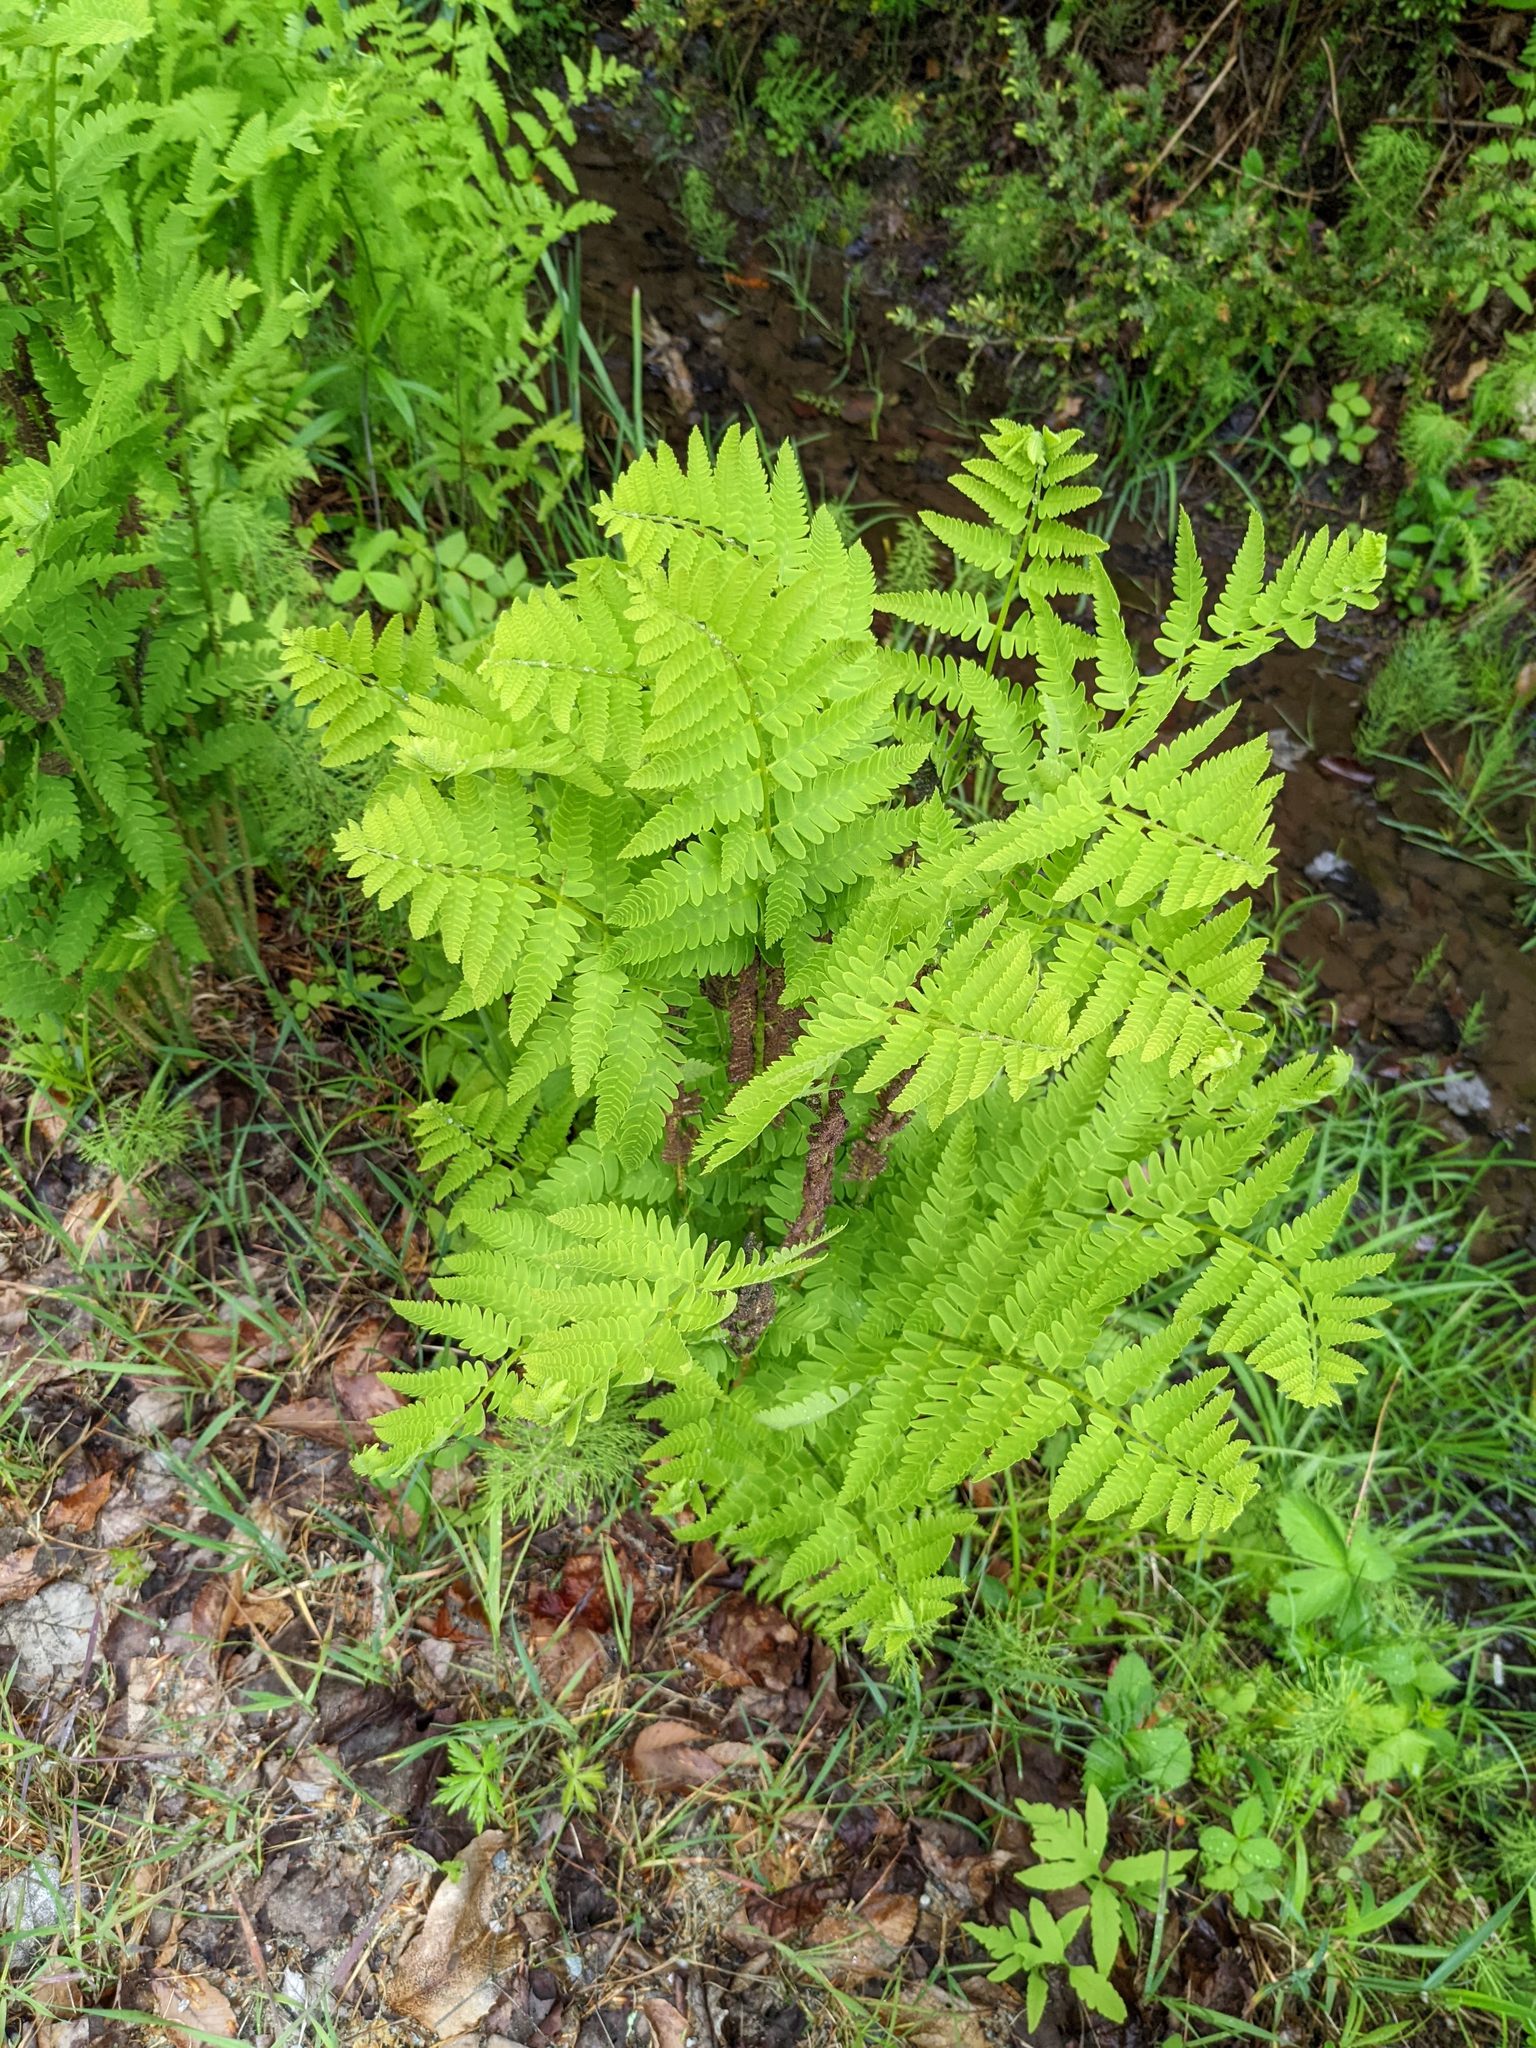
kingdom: Plantae
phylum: Tracheophyta
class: Polypodiopsida
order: Osmundales
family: Osmundaceae
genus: Claytosmunda
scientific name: Claytosmunda claytoniana
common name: Clayton's fern
